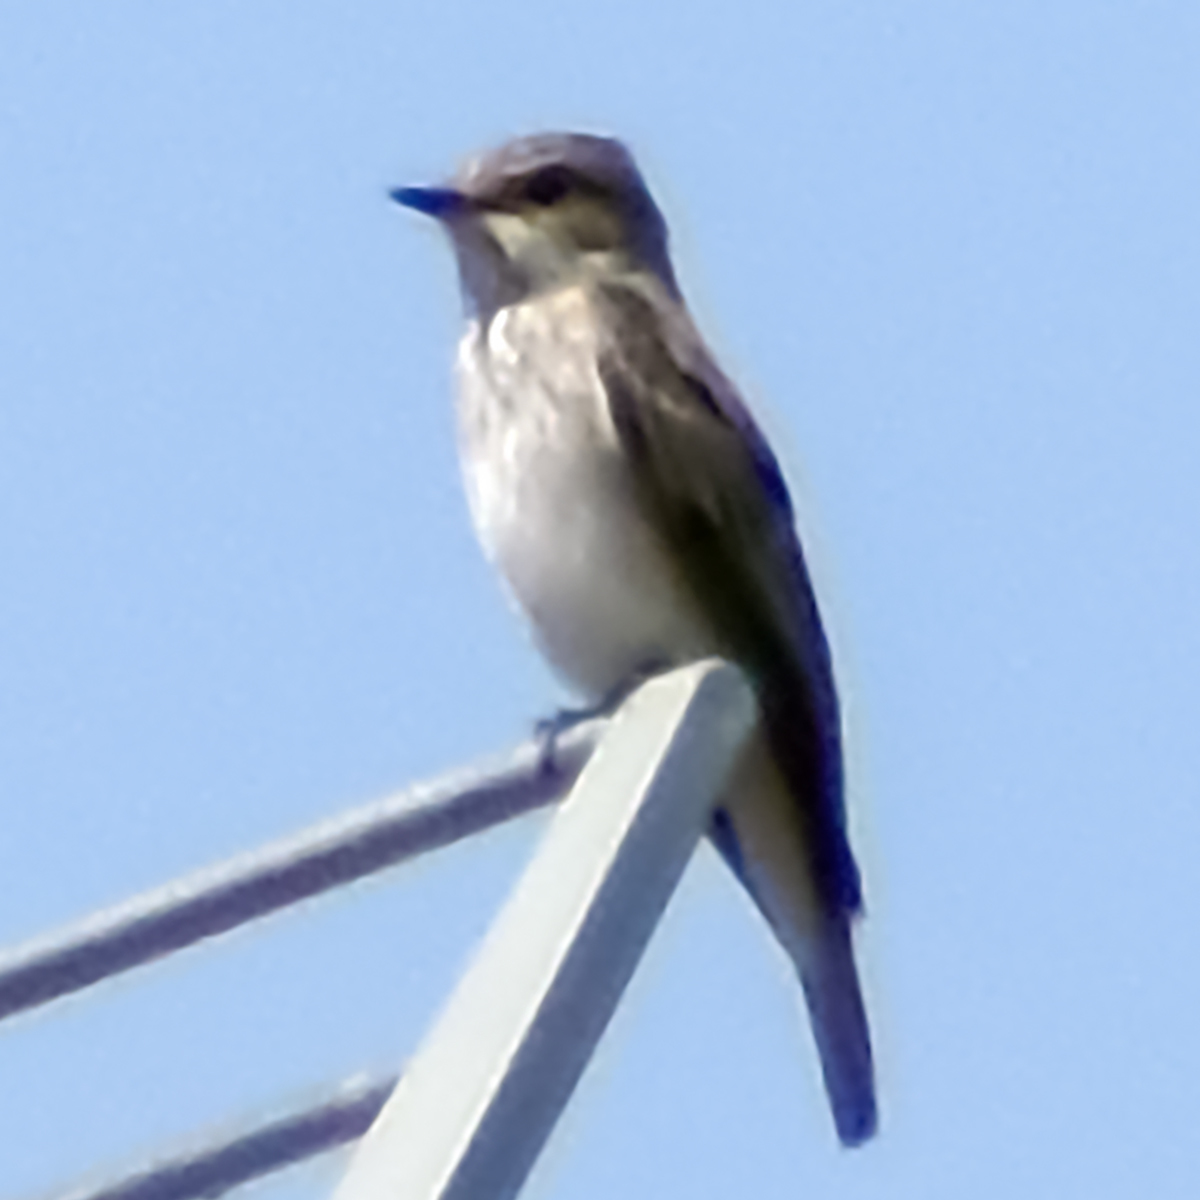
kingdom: Animalia
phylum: Chordata
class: Aves
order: Passeriformes
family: Muscicapidae
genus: Muscicapa
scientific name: Muscicapa striata
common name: Spotted flycatcher
